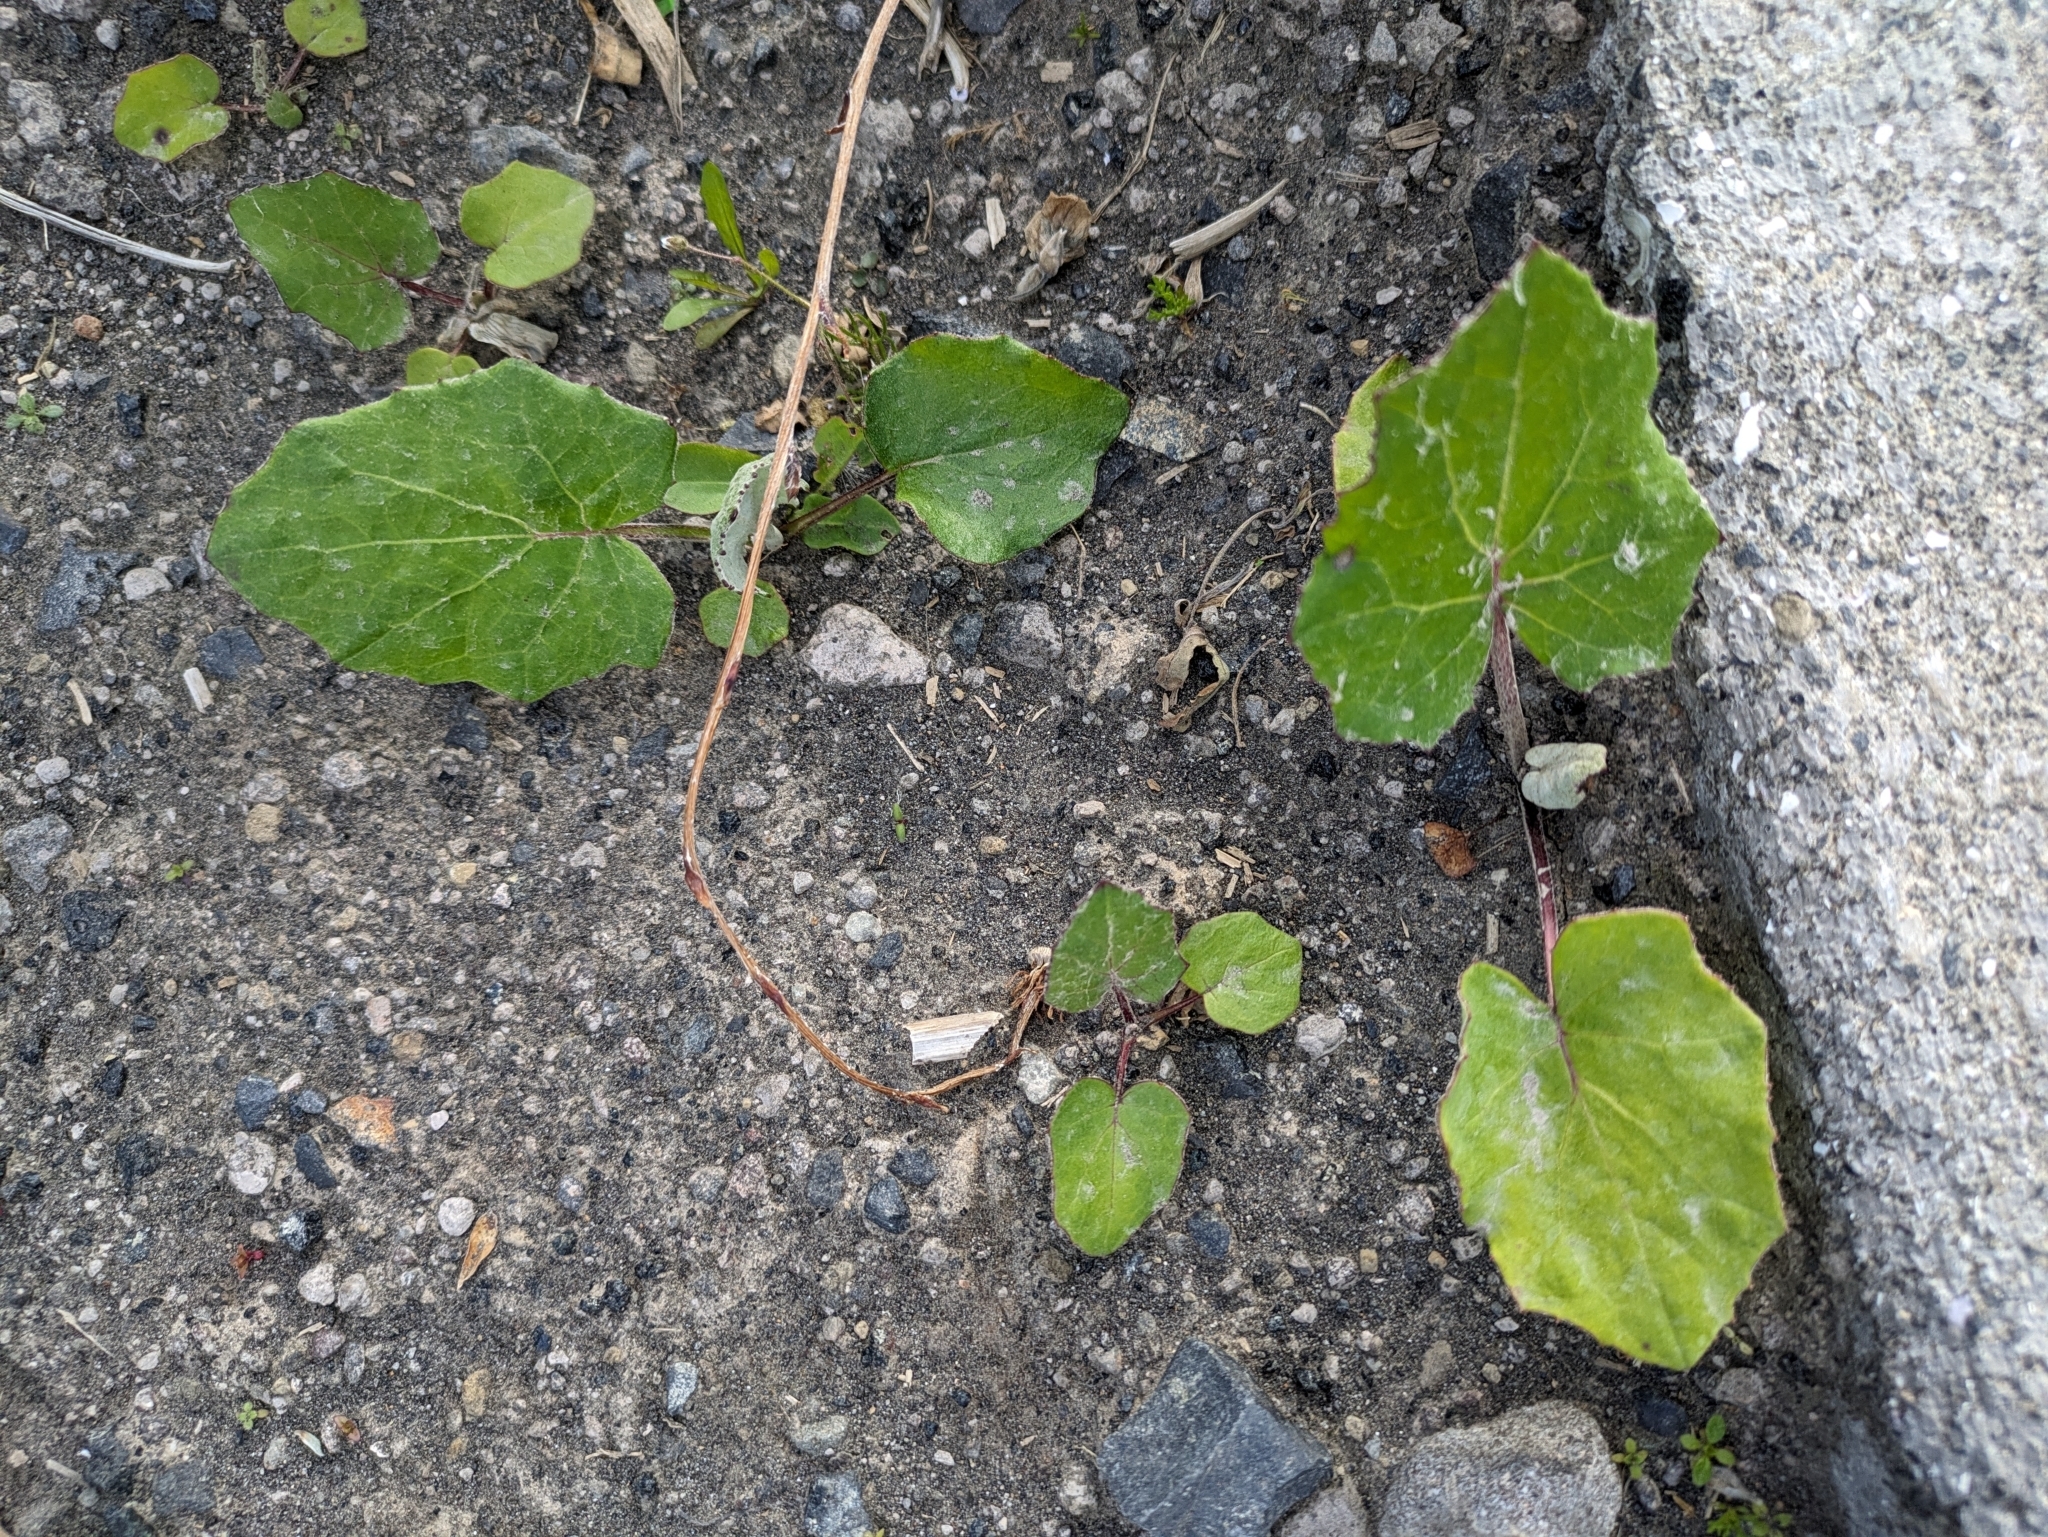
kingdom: Plantae
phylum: Tracheophyta
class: Magnoliopsida
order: Asterales
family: Asteraceae
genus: Tussilago
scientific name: Tussilago farfara
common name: Coltsfoot
